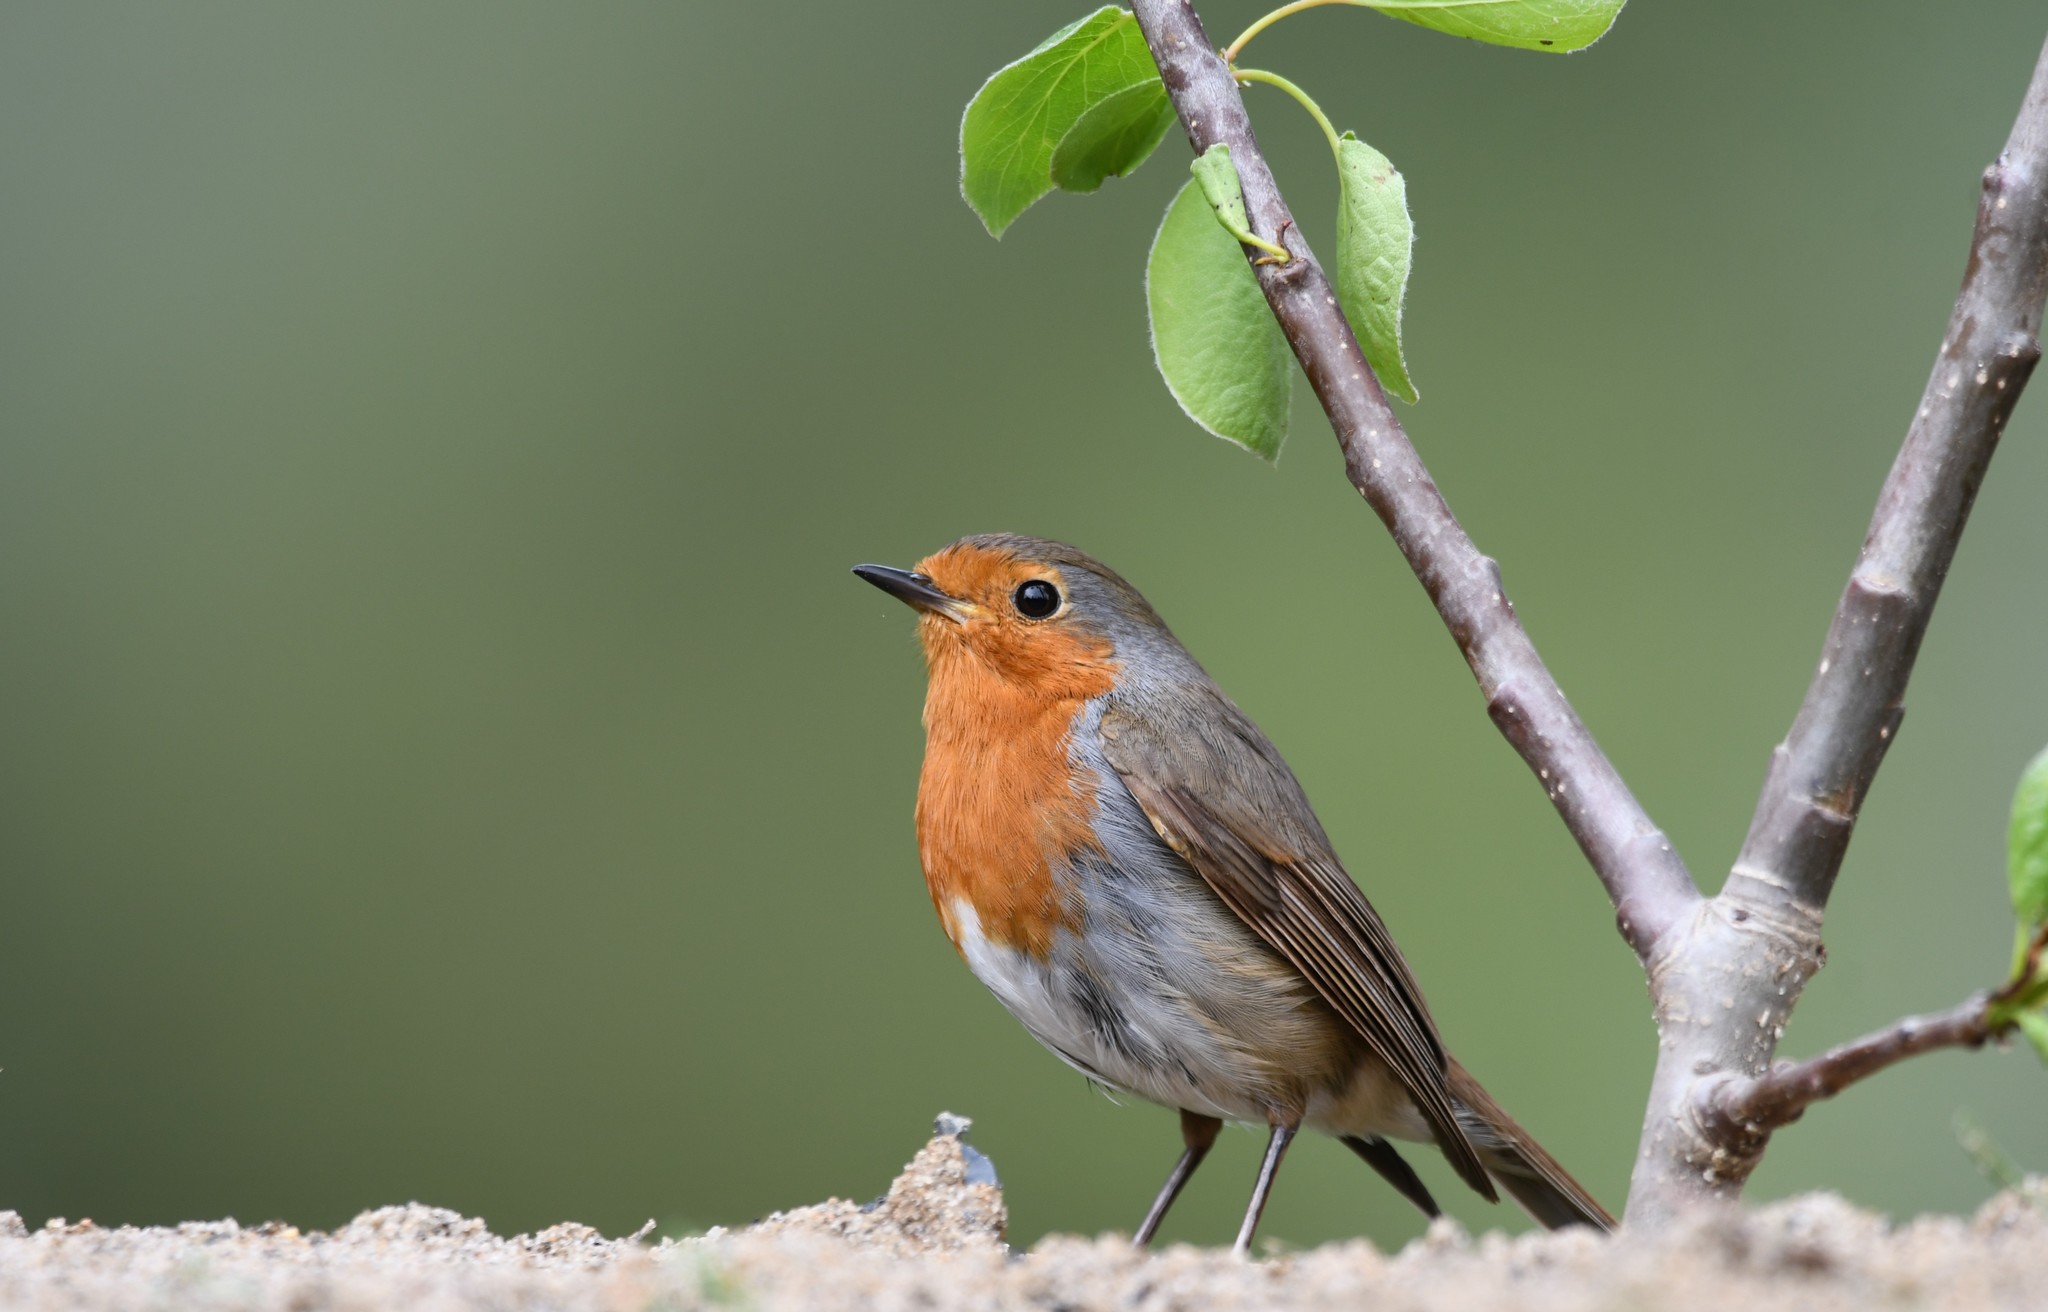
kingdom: Animalia
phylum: Chordata
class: Aves
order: Passeriformes
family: Muscicapidae
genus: Erithacus
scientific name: Erithacus rubecula
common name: European robin
